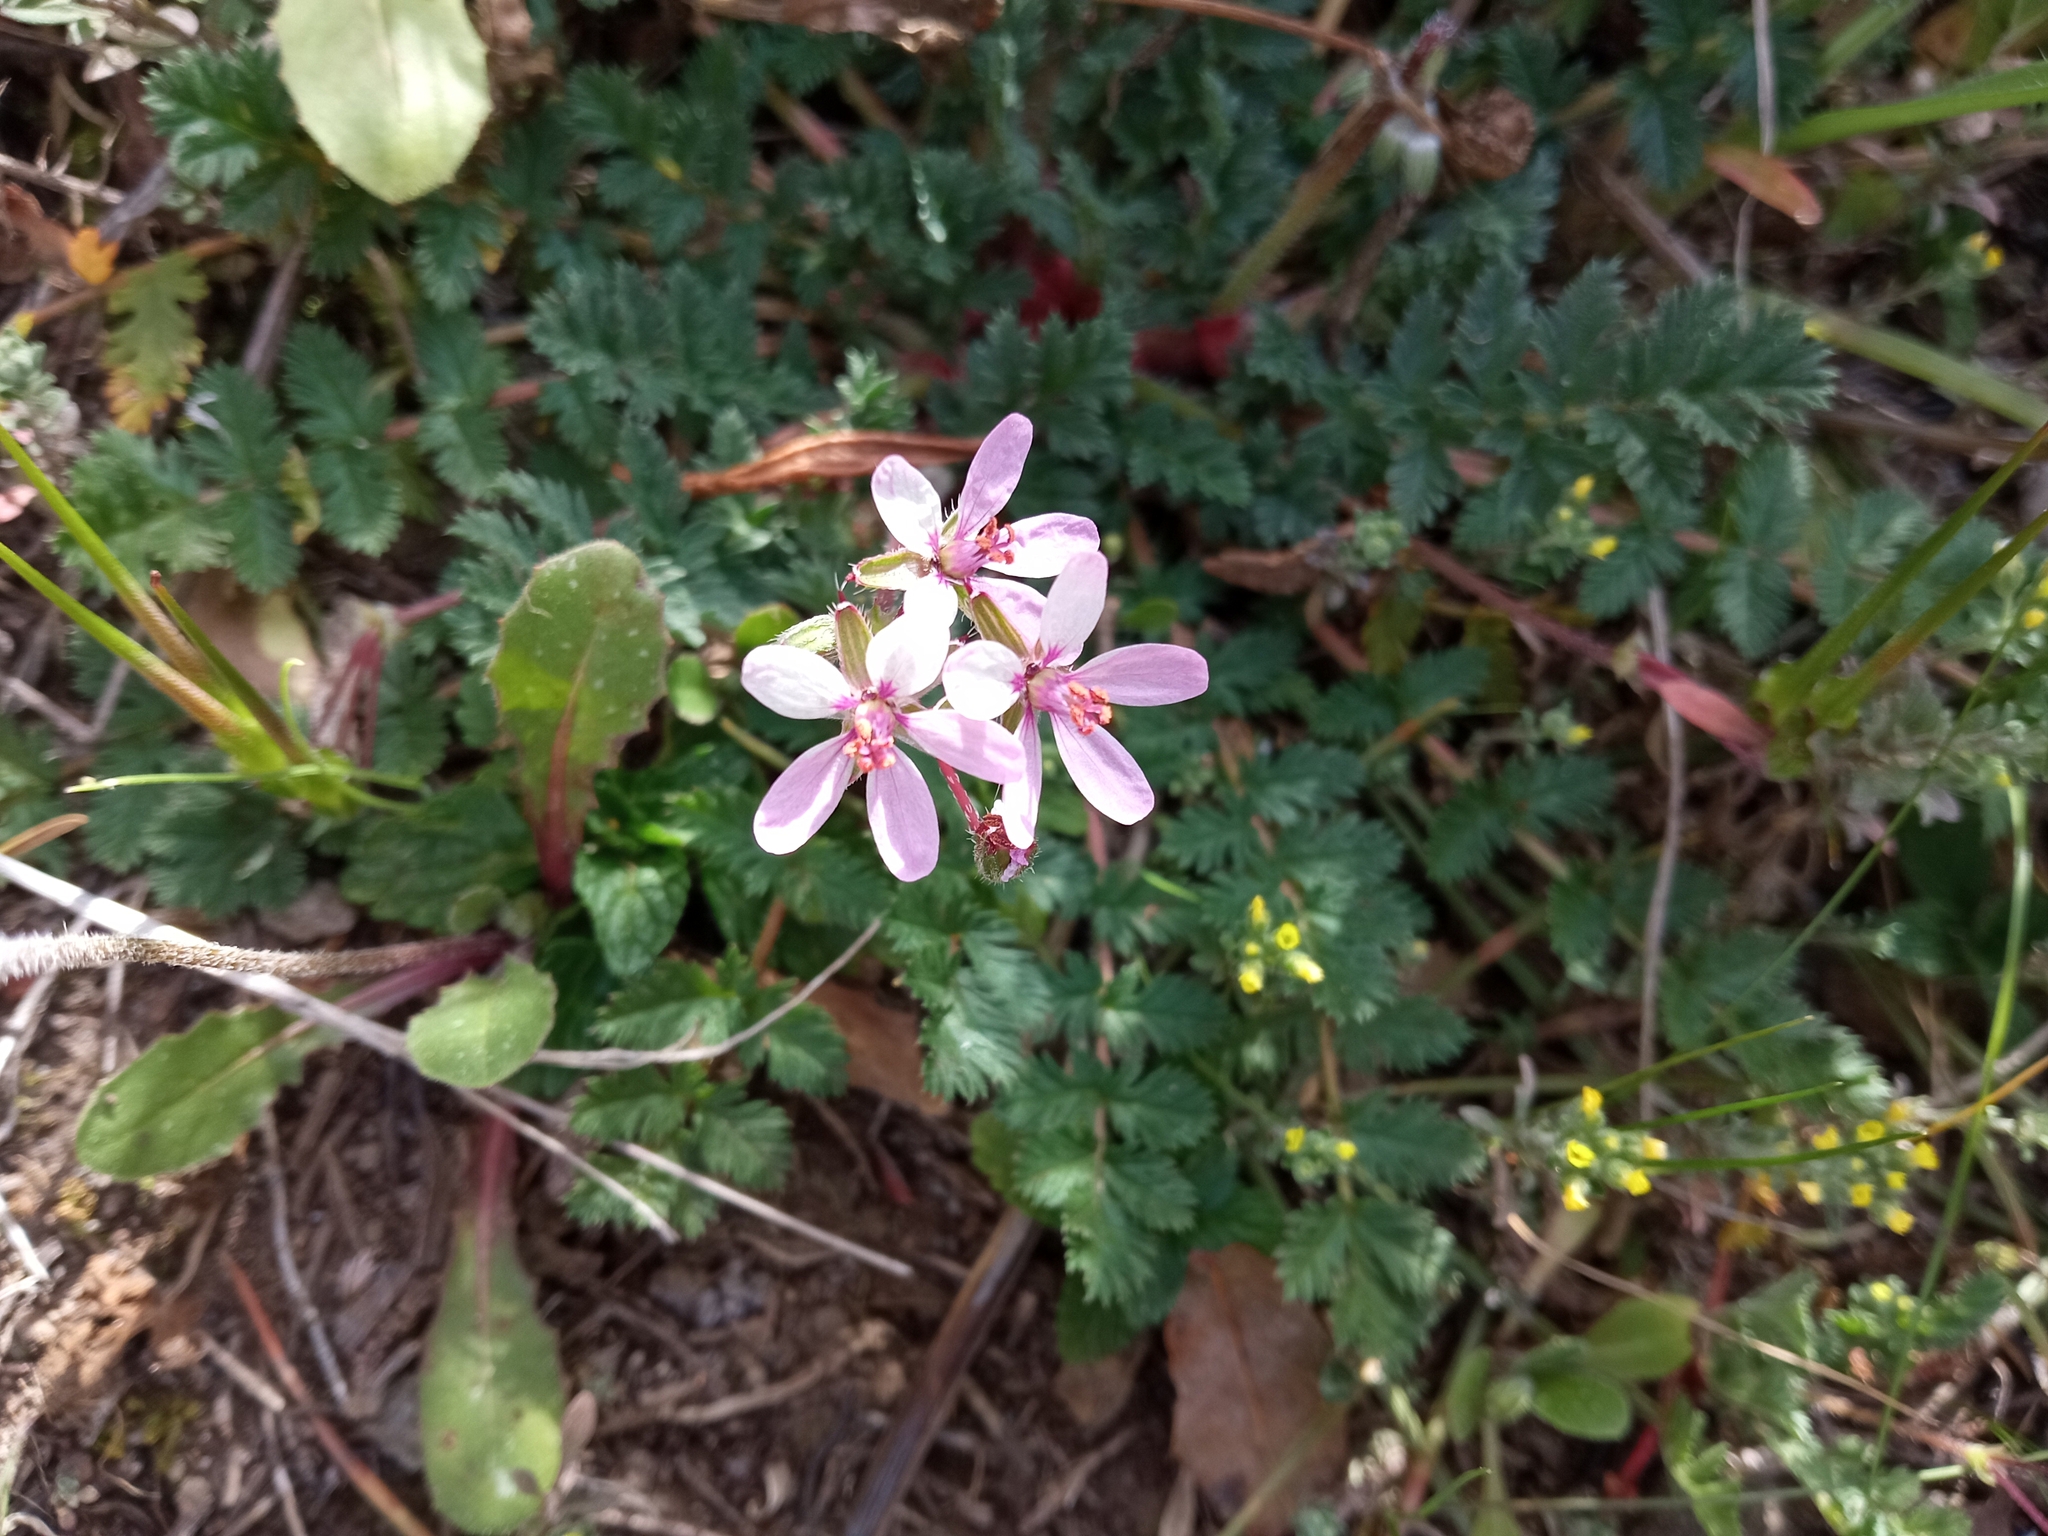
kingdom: Plantae
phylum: Tracheophyta
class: Magnoliopsida
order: Geraniales
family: Geraniaceae
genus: Erodium
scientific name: Erodium cicutarium
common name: Common stork's-bill
